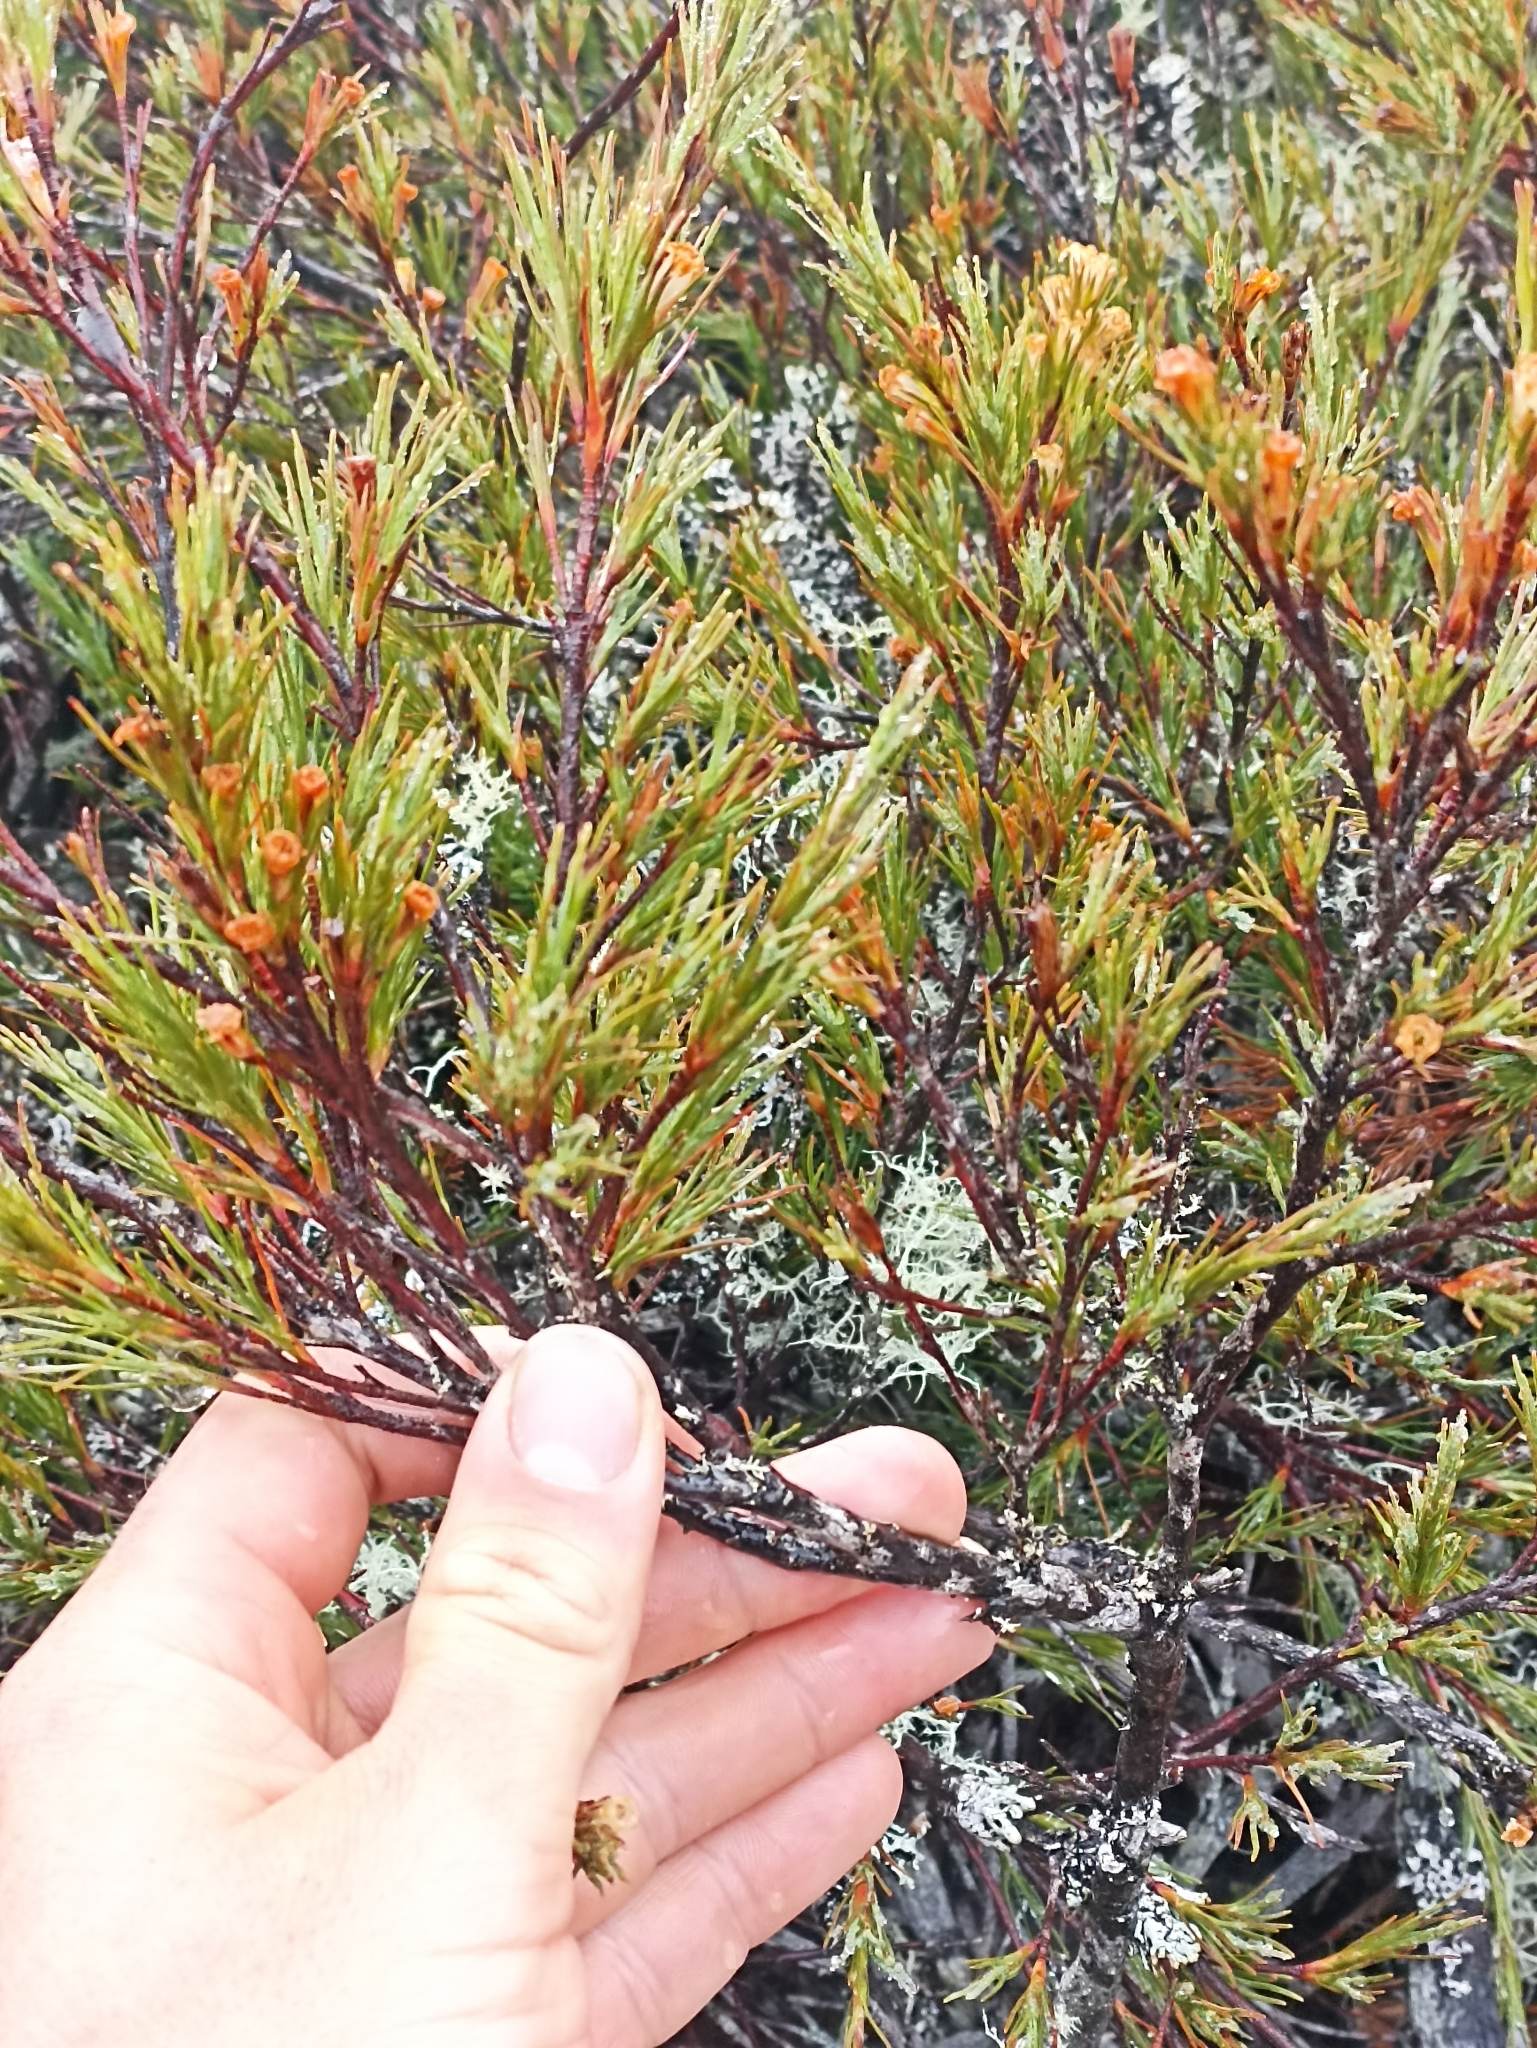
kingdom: Plantae
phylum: Tracheophyta
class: Magnoliopsida
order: Ericales
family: Ericaceae
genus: Dracophyllum
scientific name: Dracophyllum rosmarinifolium
